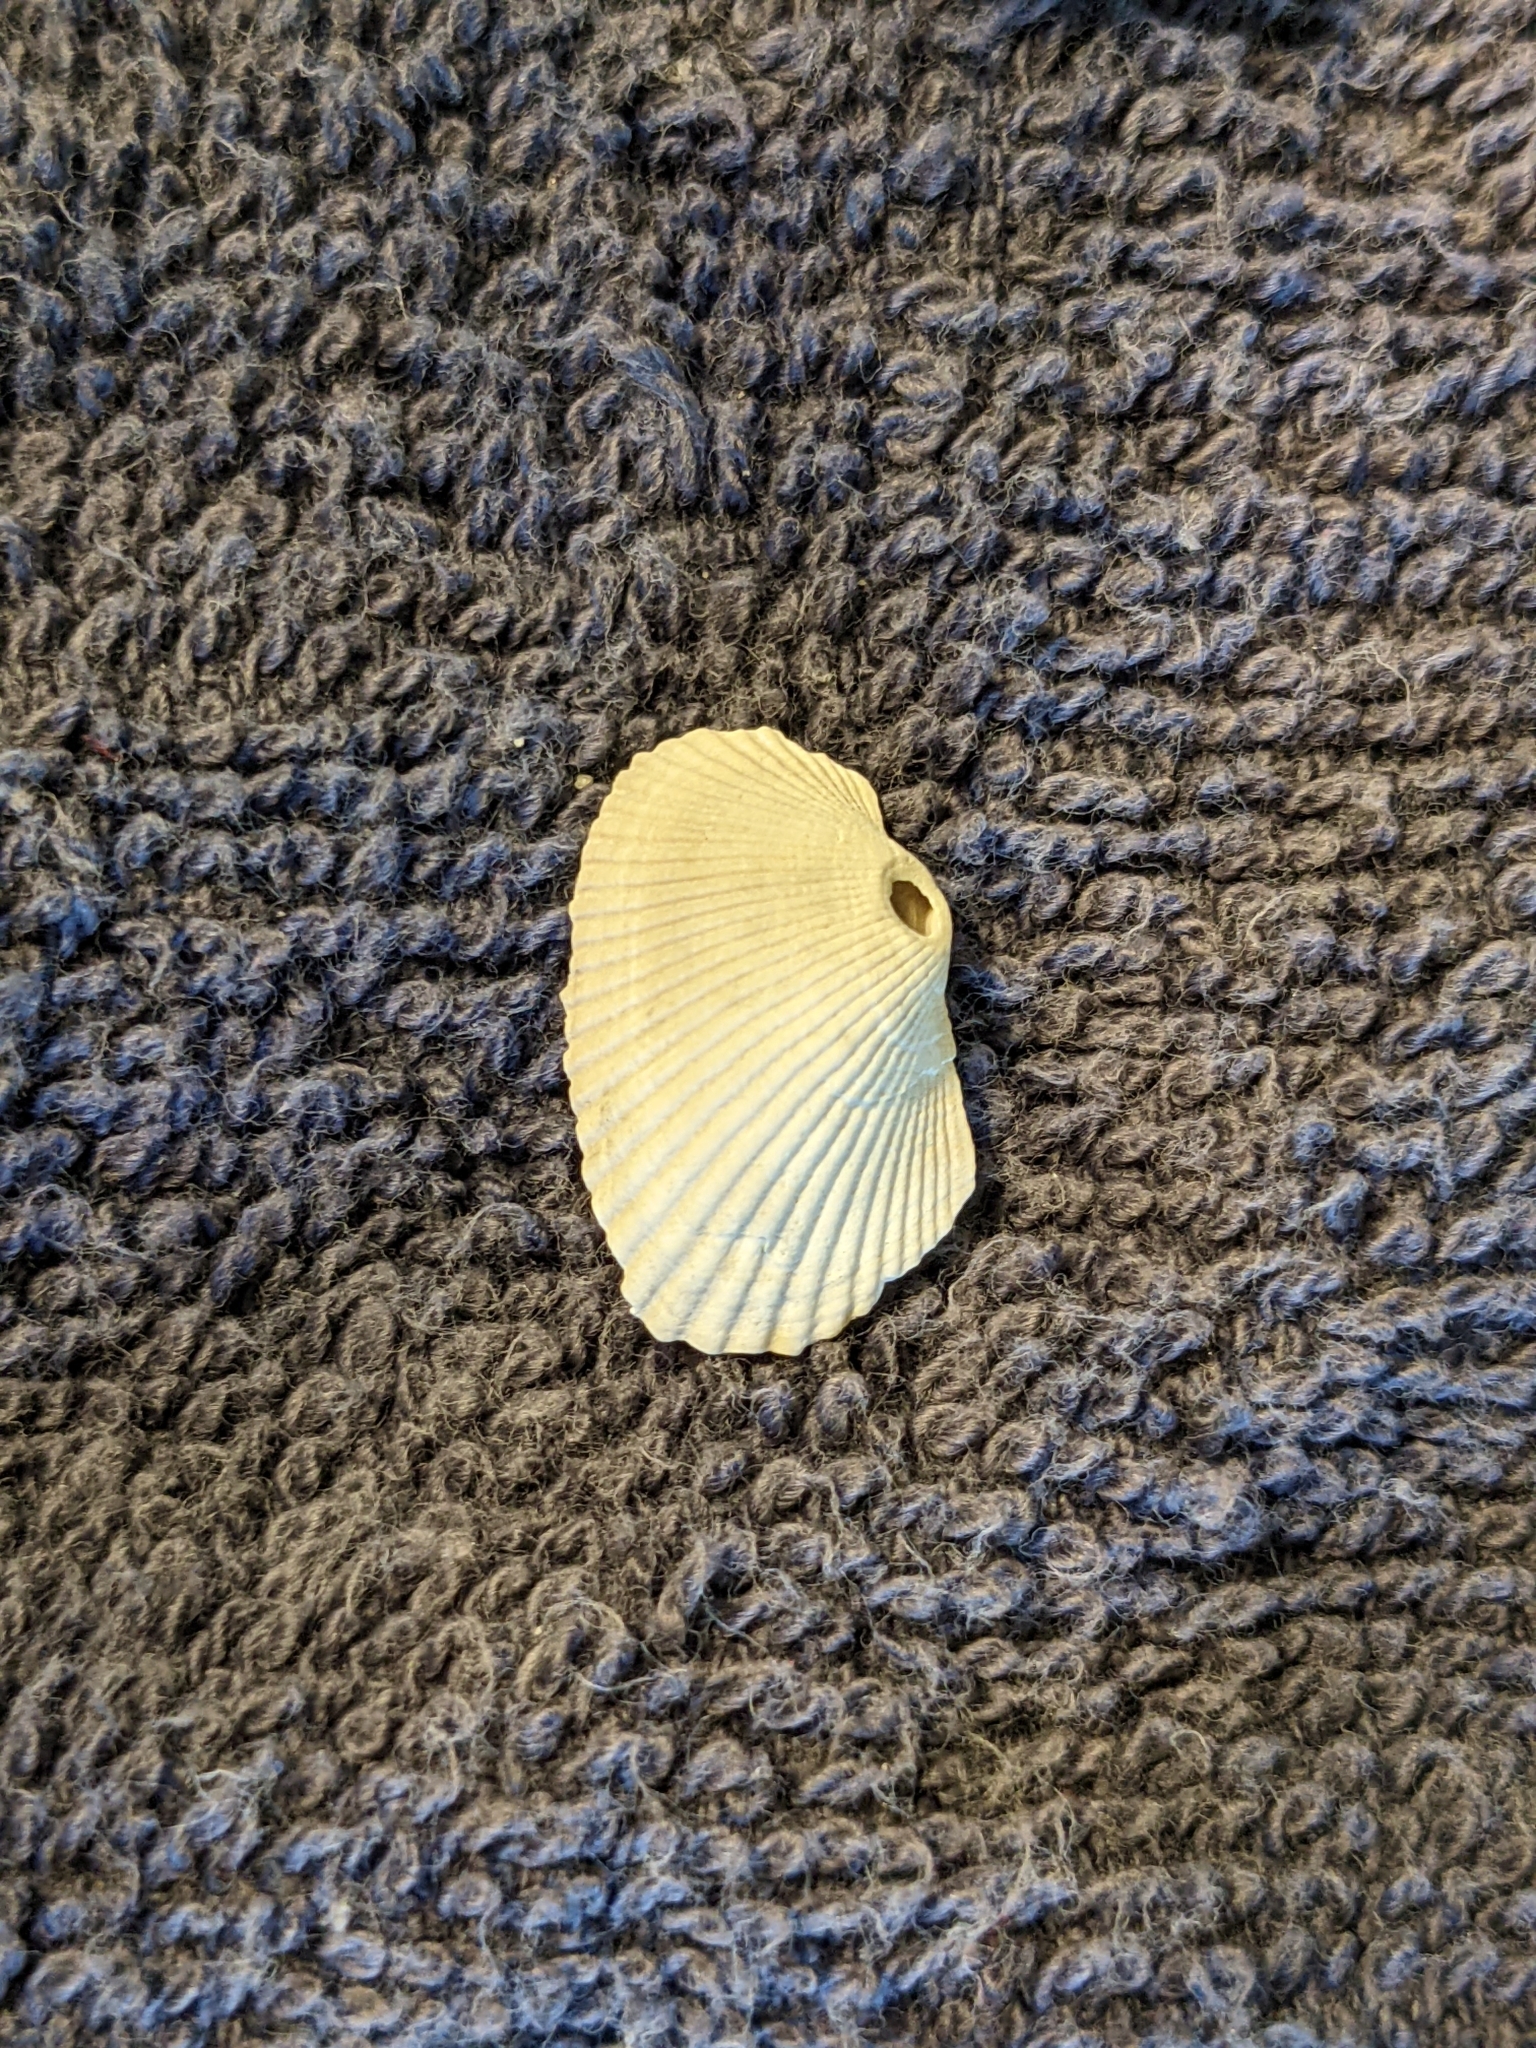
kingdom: Animalia
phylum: Mollusca
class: Bivalvia
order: Arcida
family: Arcidae
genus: Anadara
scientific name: Anadara transversa
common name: Transverse ark
